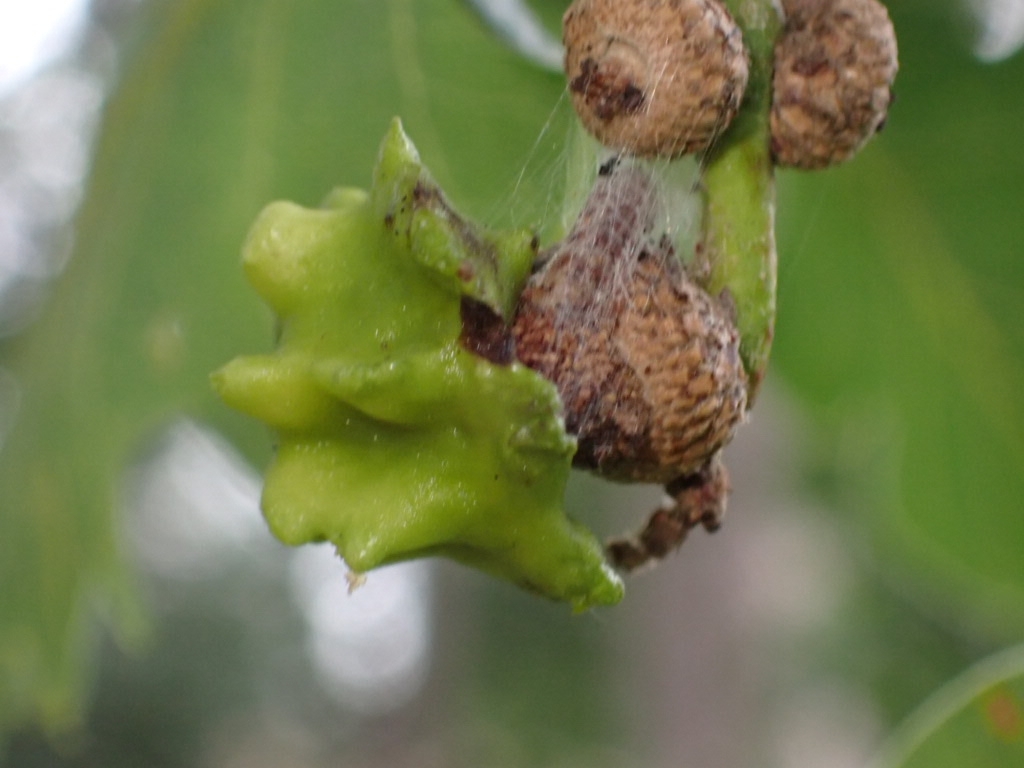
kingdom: Animalia
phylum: Arthropoda
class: Insecta
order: Hymenoptera
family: Cynipidae
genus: Andricus
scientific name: Andricus quercuscalicis
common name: Knopper gall
